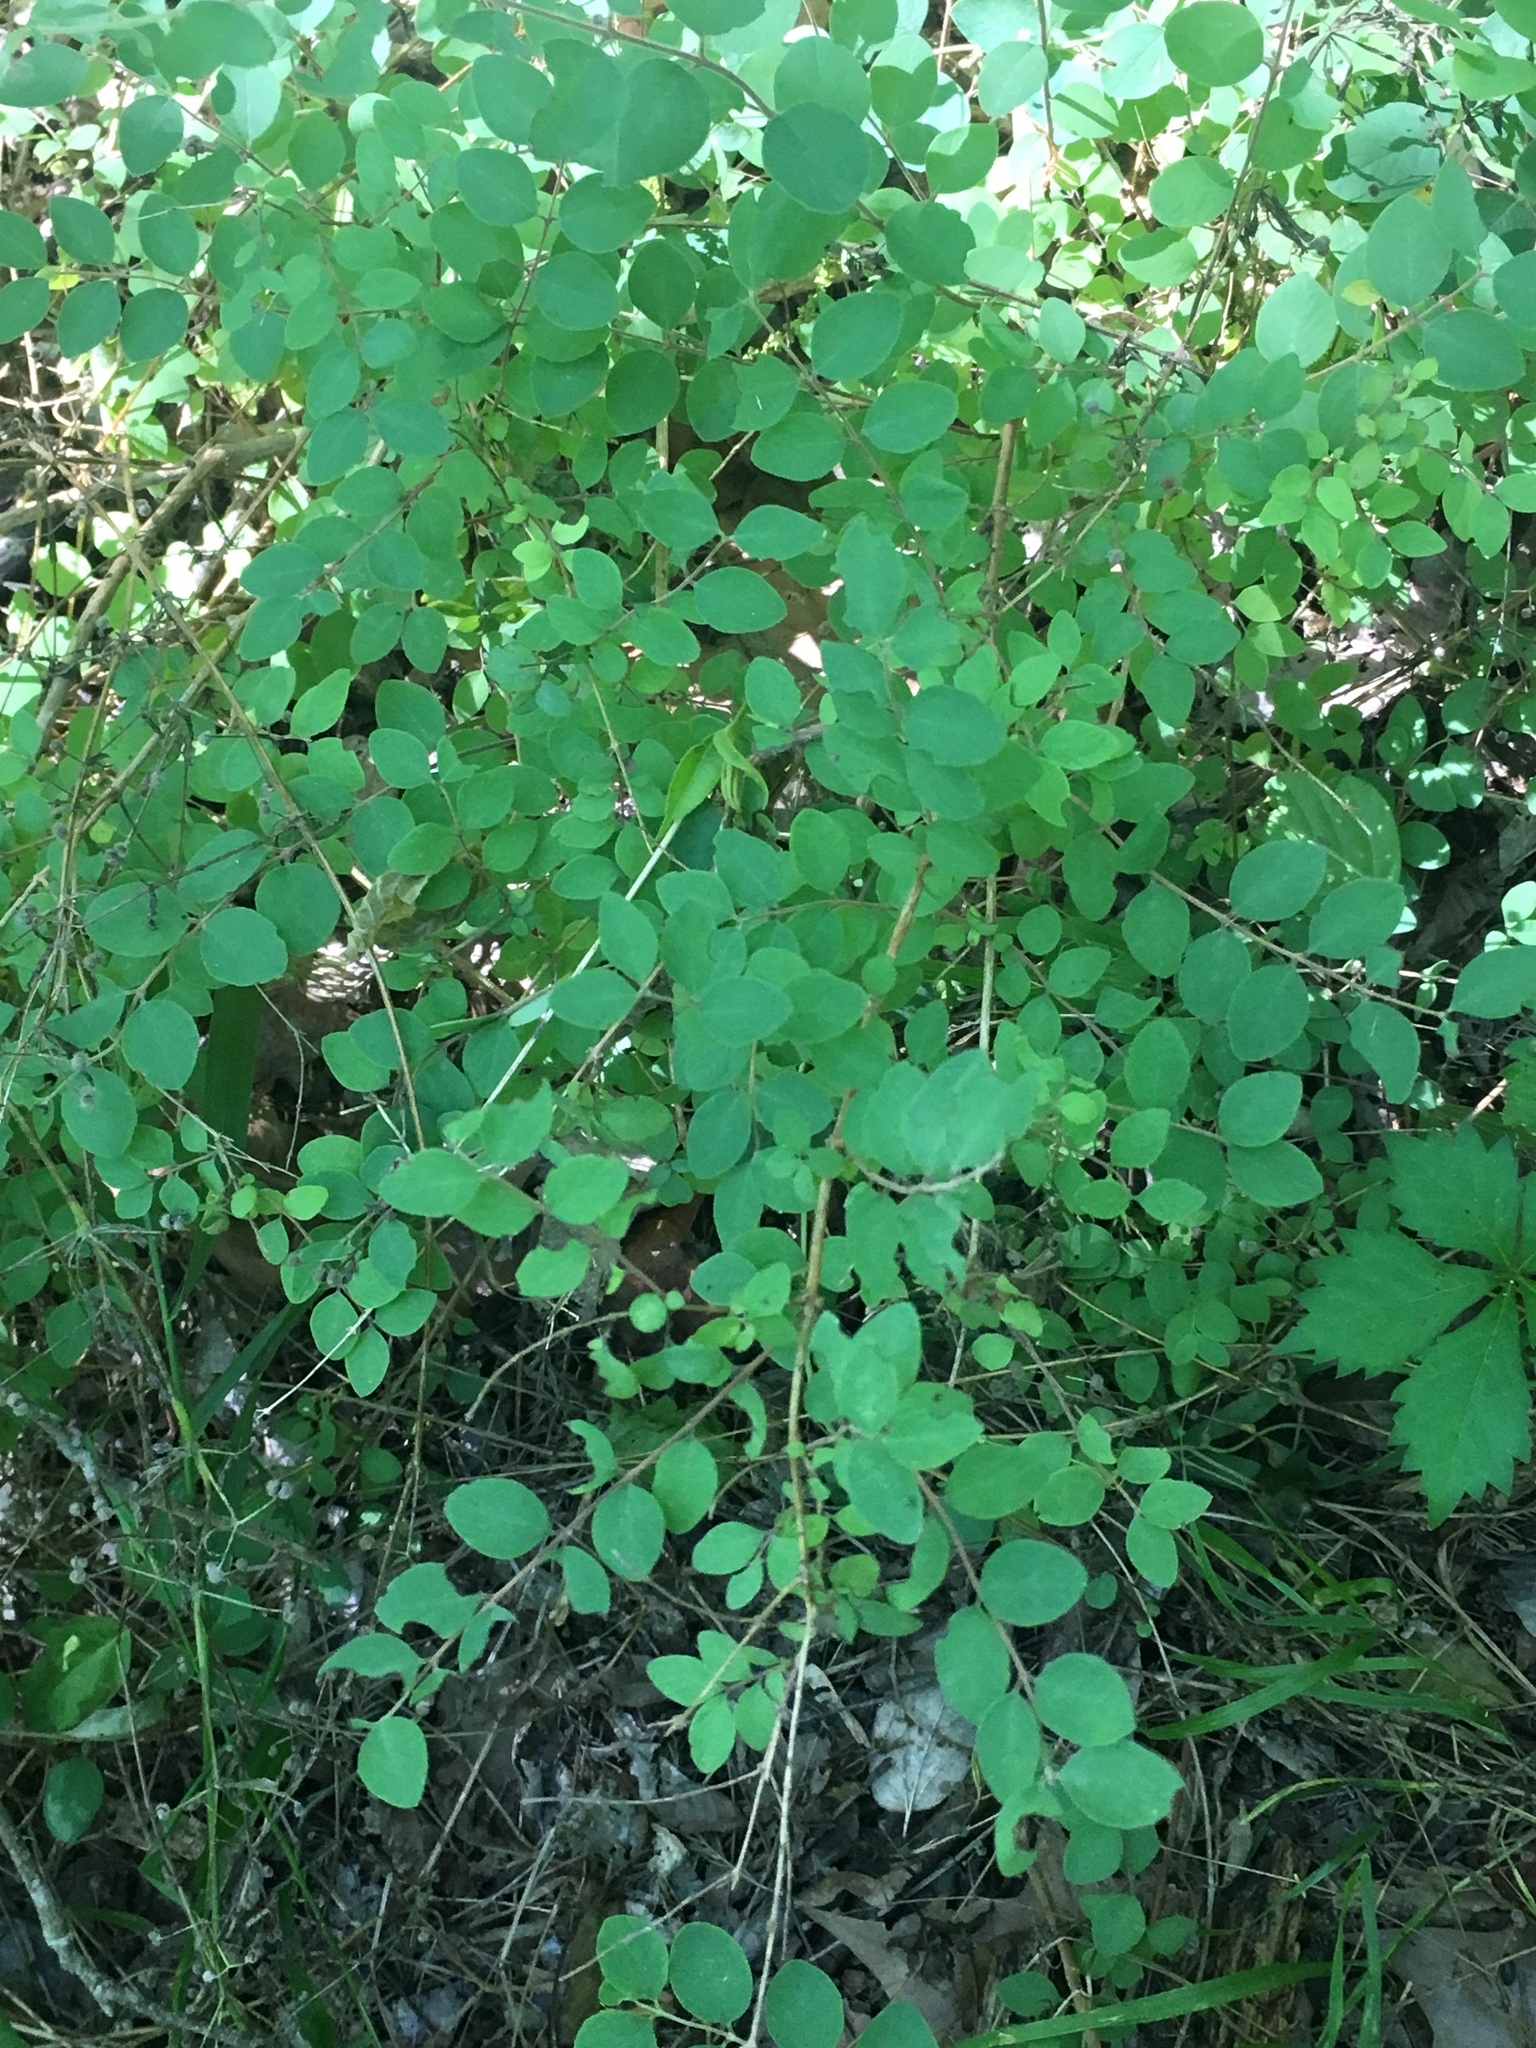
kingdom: Plantae
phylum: Tracheophyta
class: Magnoliopsida
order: Dipsacales
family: Caprifoliaceae
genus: Symphoricarpos
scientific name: Symphoricarpos orbiculatus
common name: Coralberry
